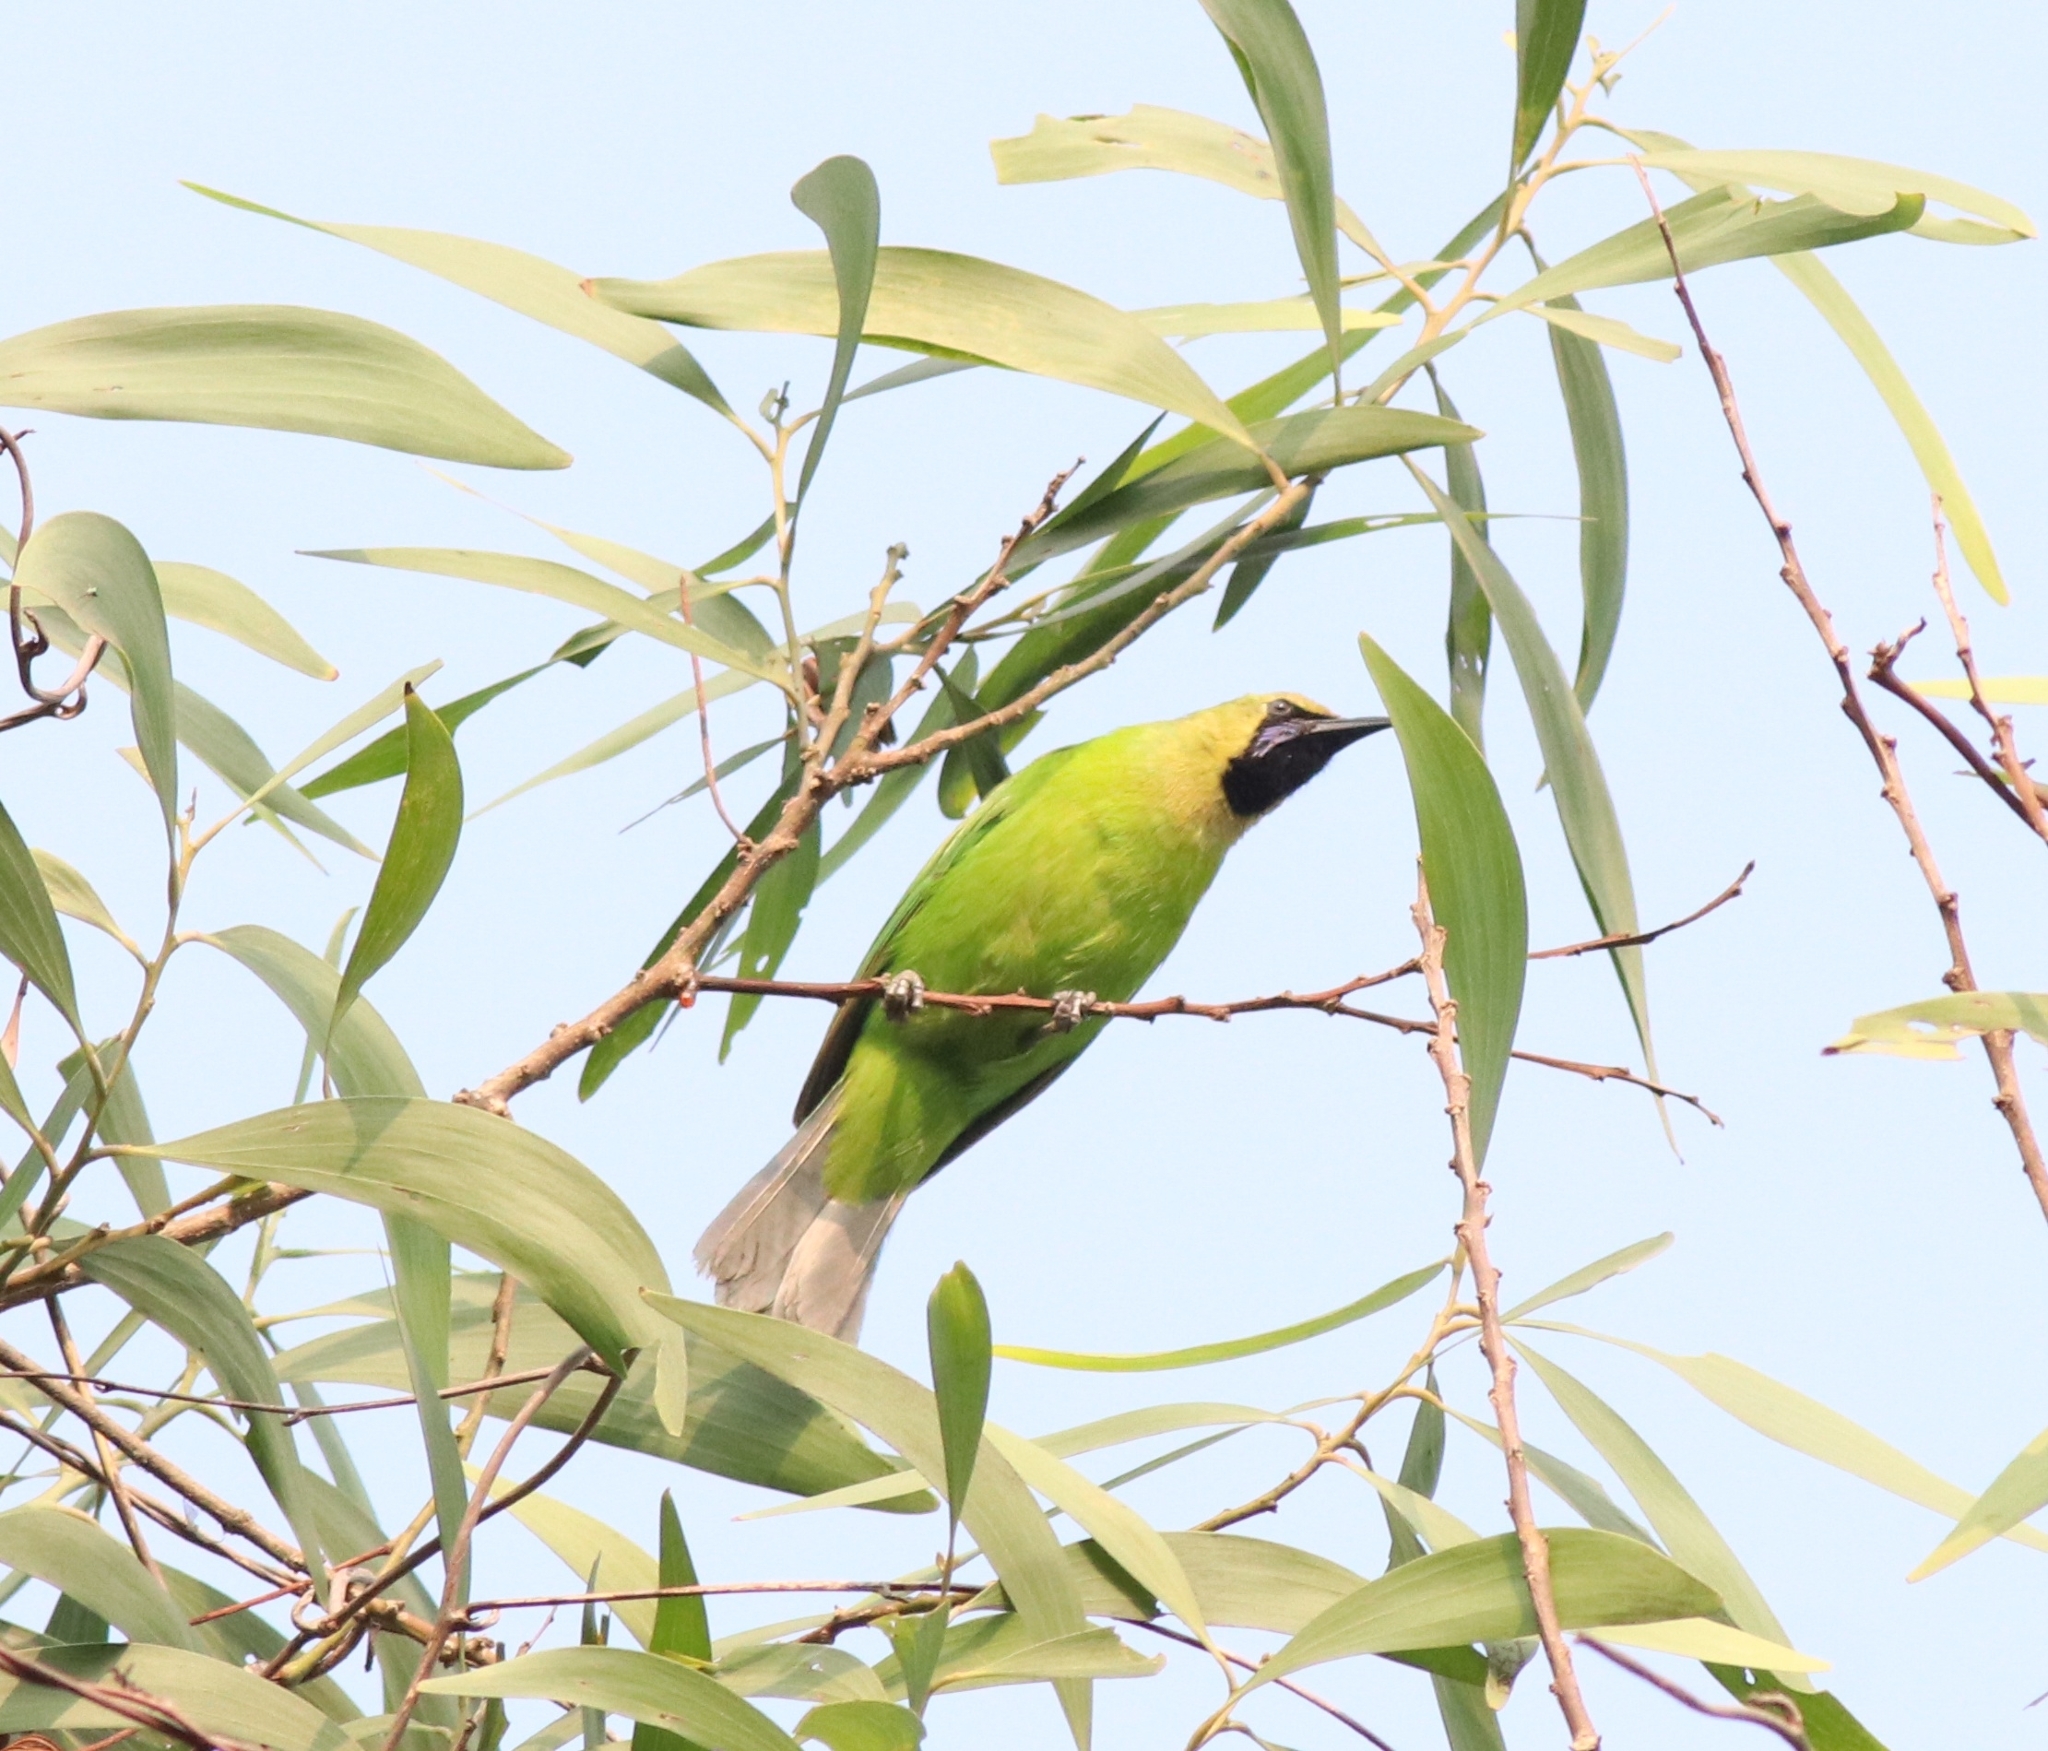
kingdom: Animalia
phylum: Chordata
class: Aves
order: Passeriformes
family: Chloropseidae
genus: Chloropsis
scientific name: Chloropsis jerdoni
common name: Jerdon's leafbird
